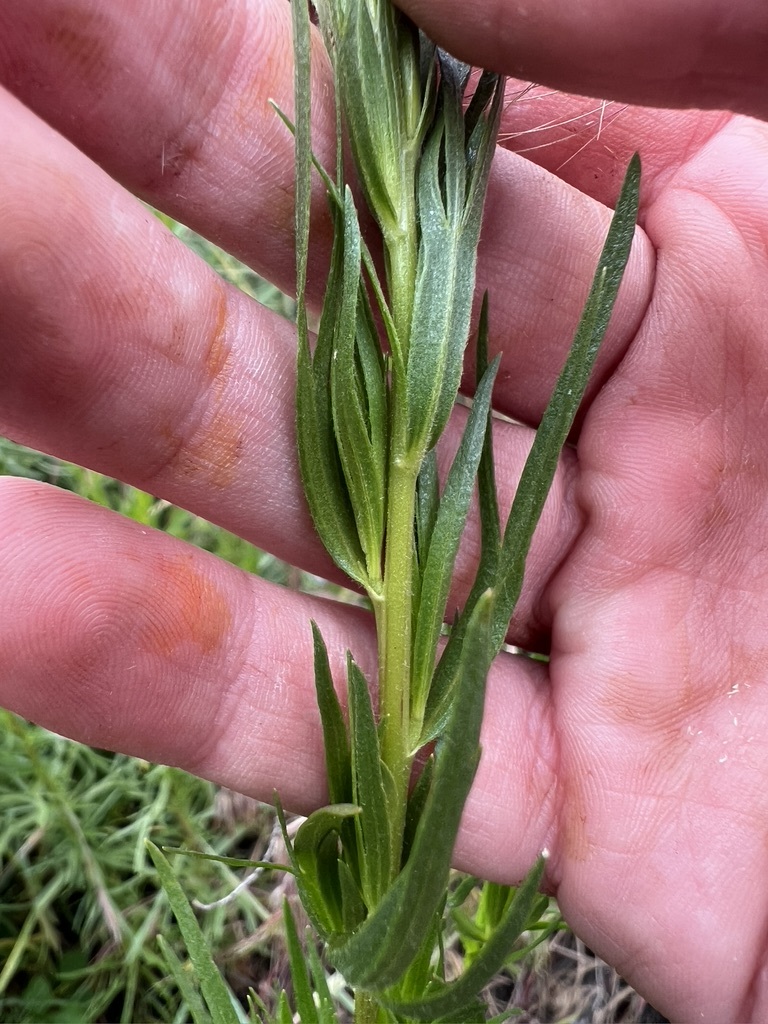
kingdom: Plantae
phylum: Tracheophyta
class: Magnoliopsida
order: Asterales
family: Asteraceae
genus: Artemisia
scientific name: Artemisia dracunculus
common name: Tarragon
